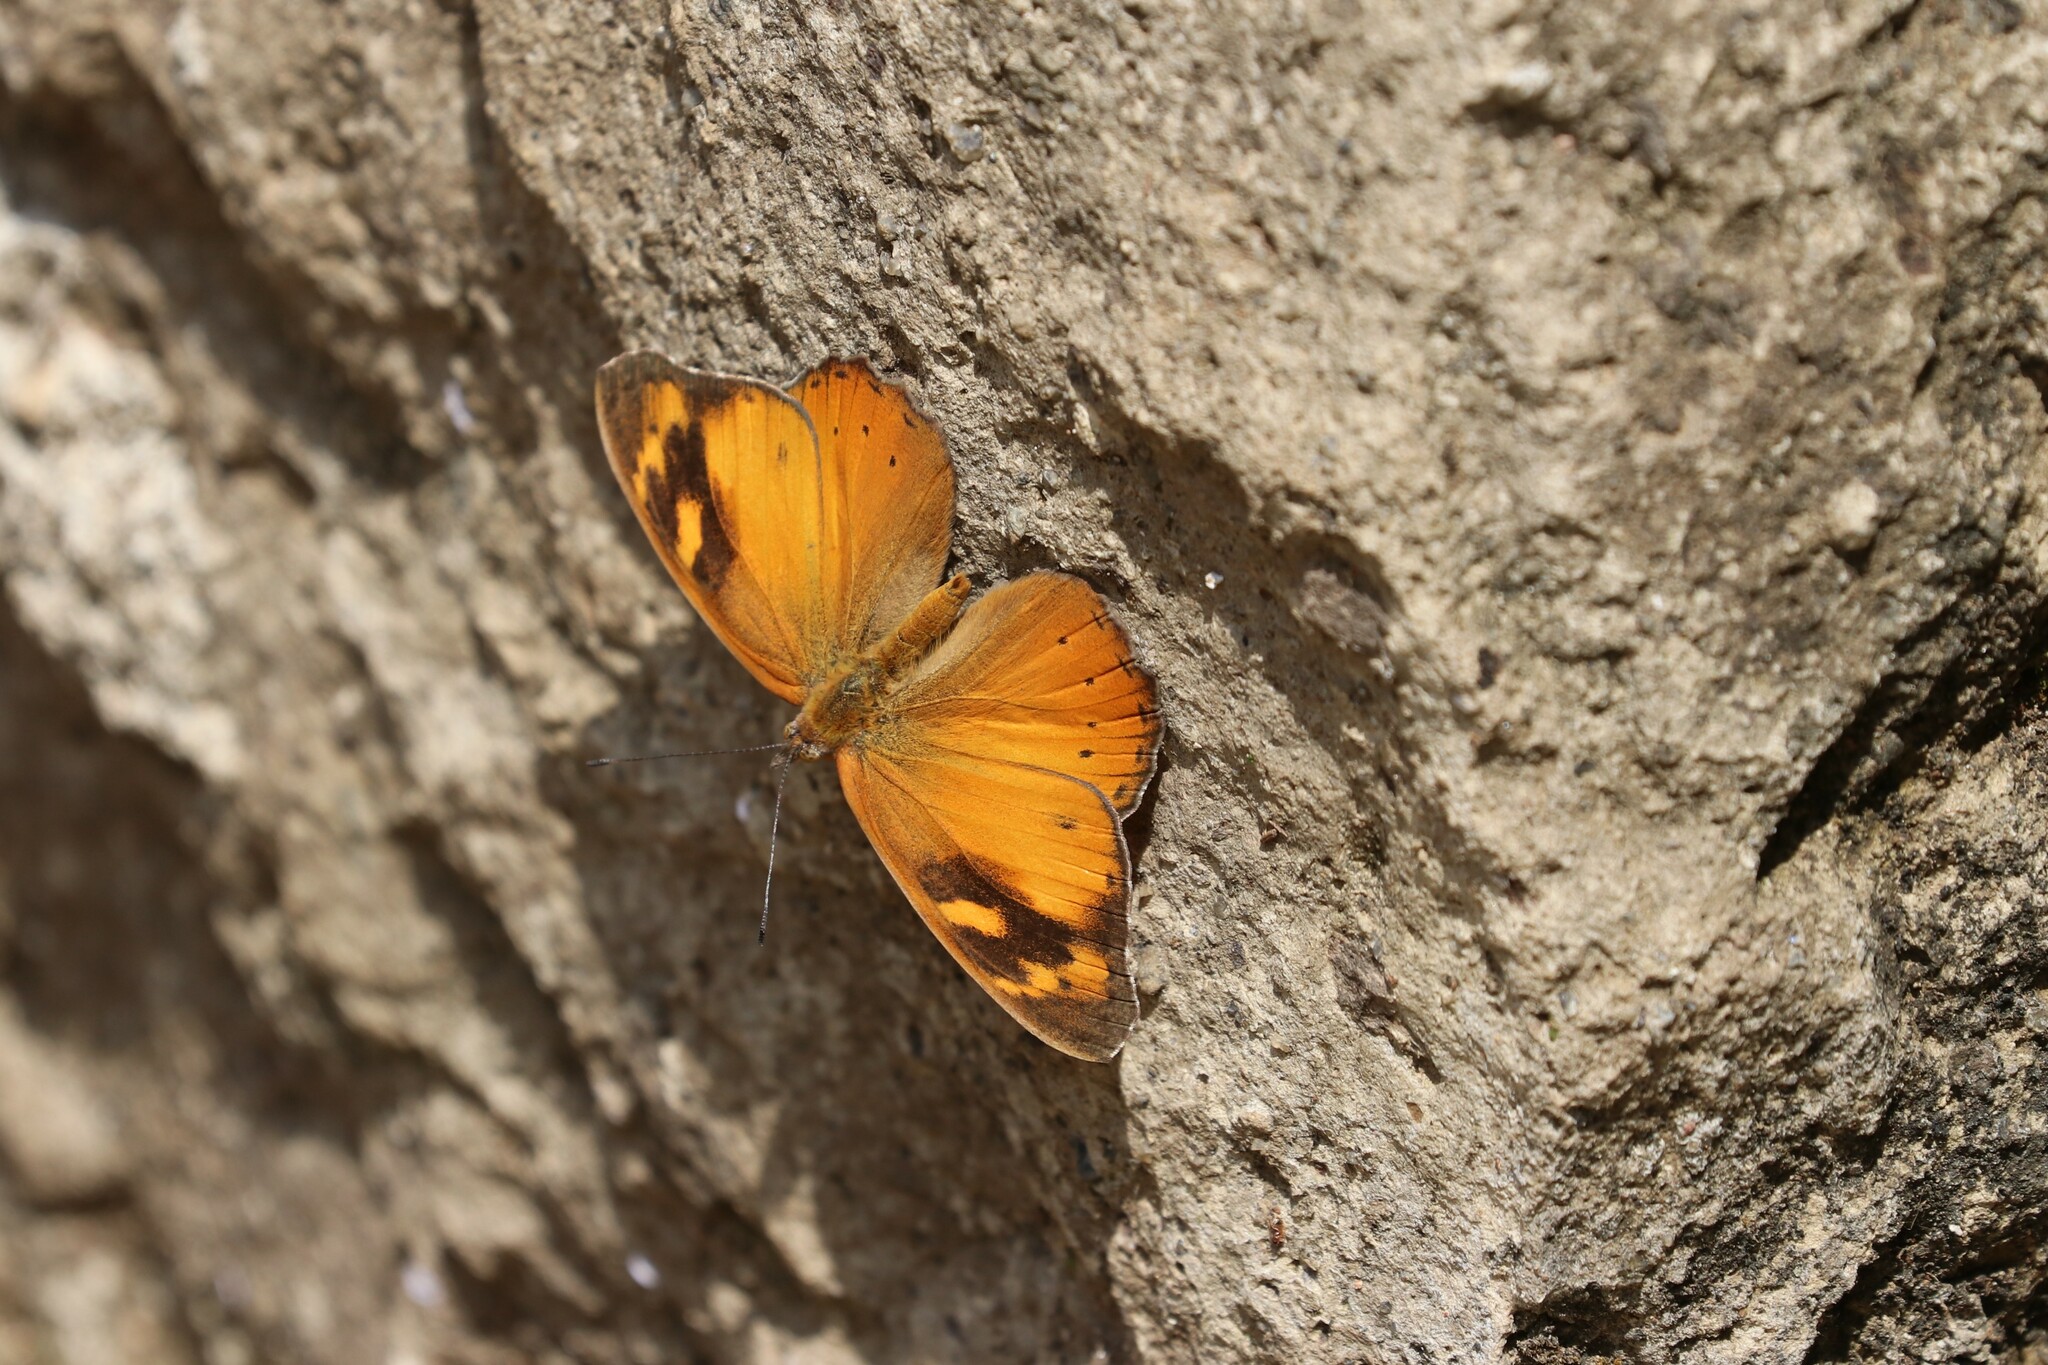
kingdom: Animalia
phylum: Arthropoda
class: Insecta
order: Lepidoptera
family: Nymphalidae
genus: Sevenia
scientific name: Sevenia
